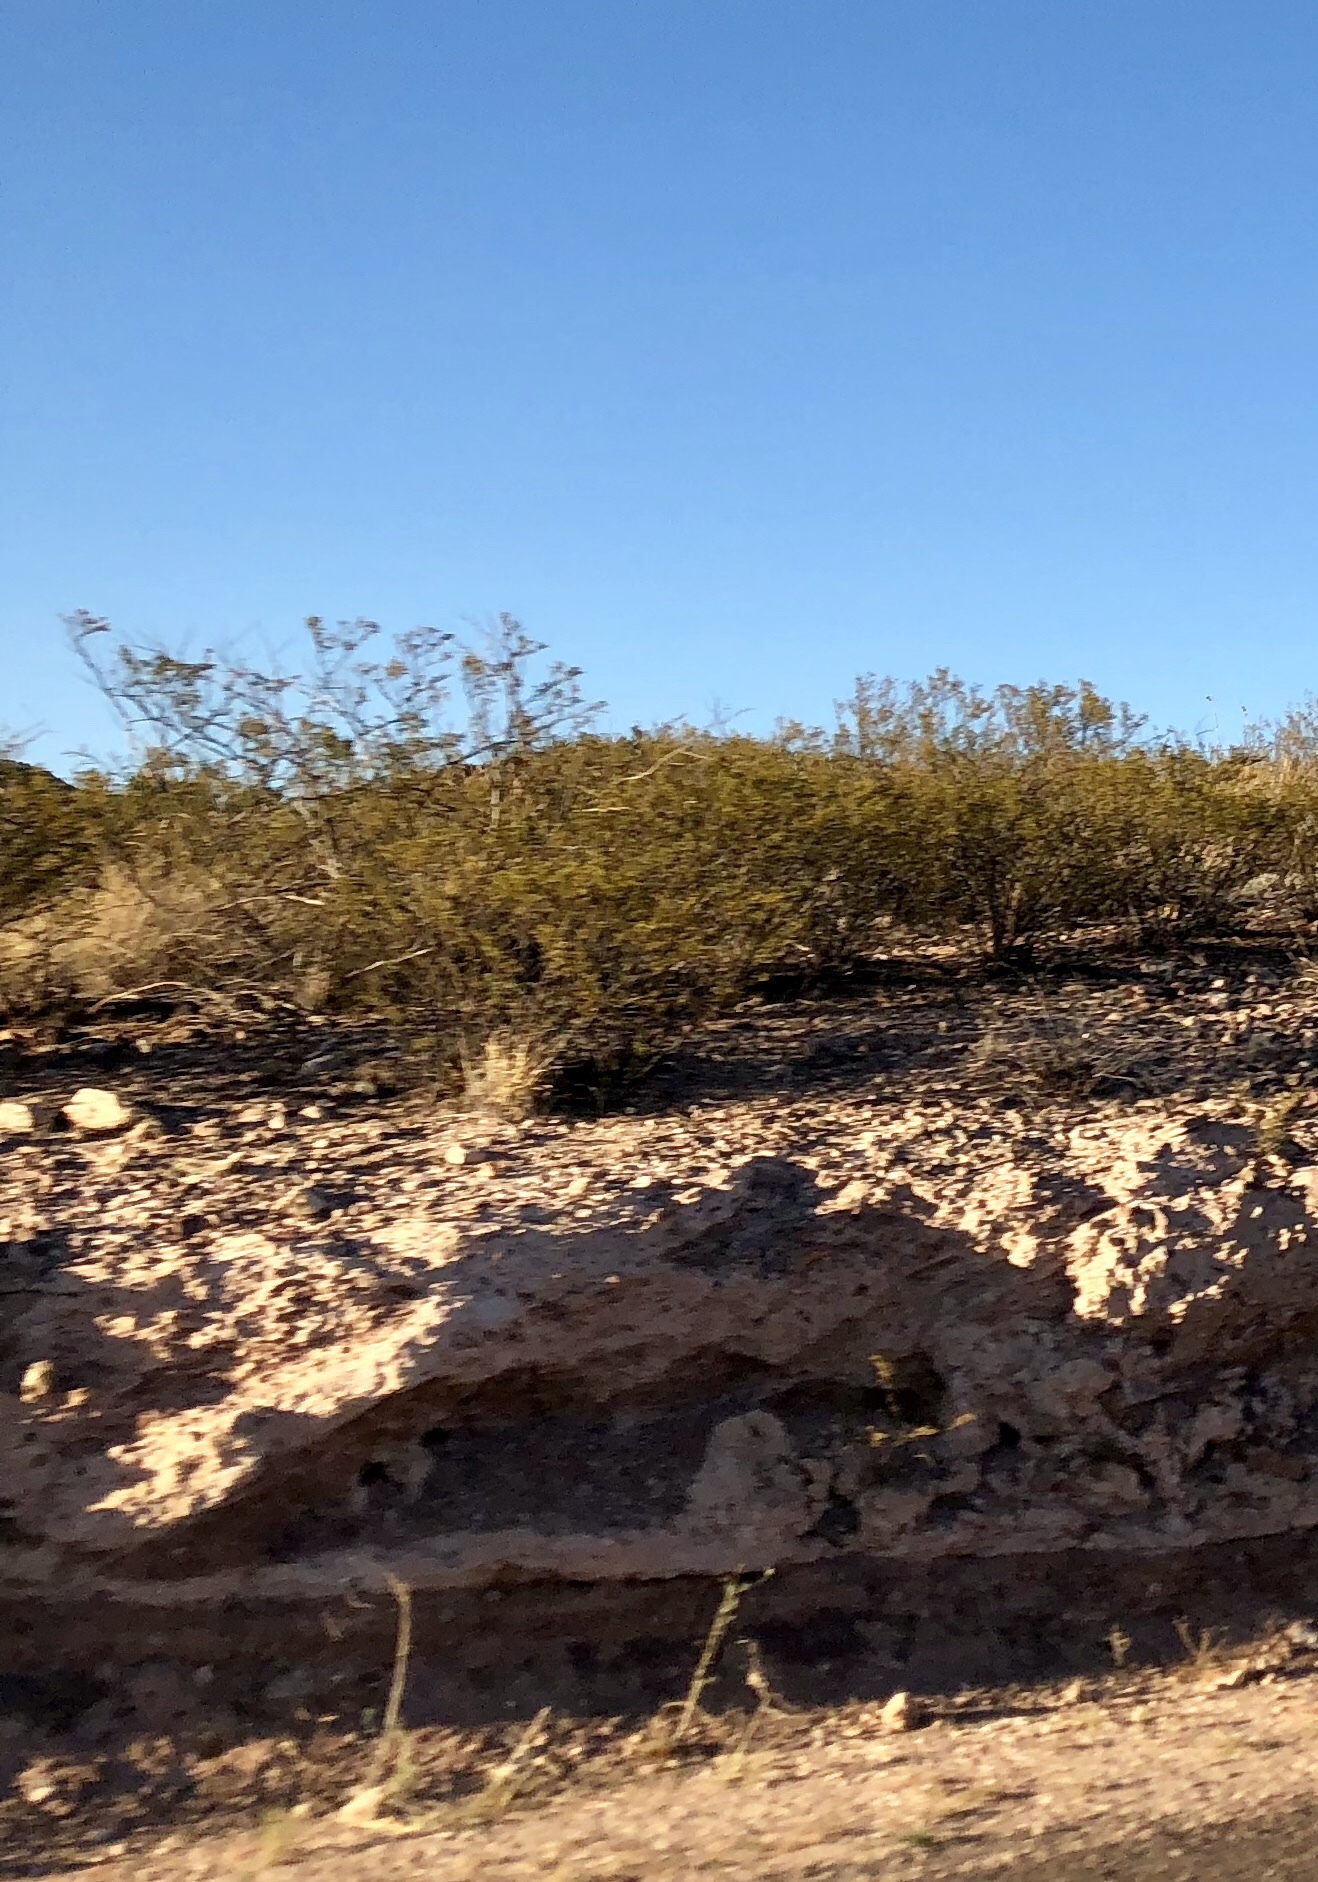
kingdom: Plantae
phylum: Tracheophyta
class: Magnoliopsida
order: Zygophyllales
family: Zygophyllaceae
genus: Larrea
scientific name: Larrea tridentata
